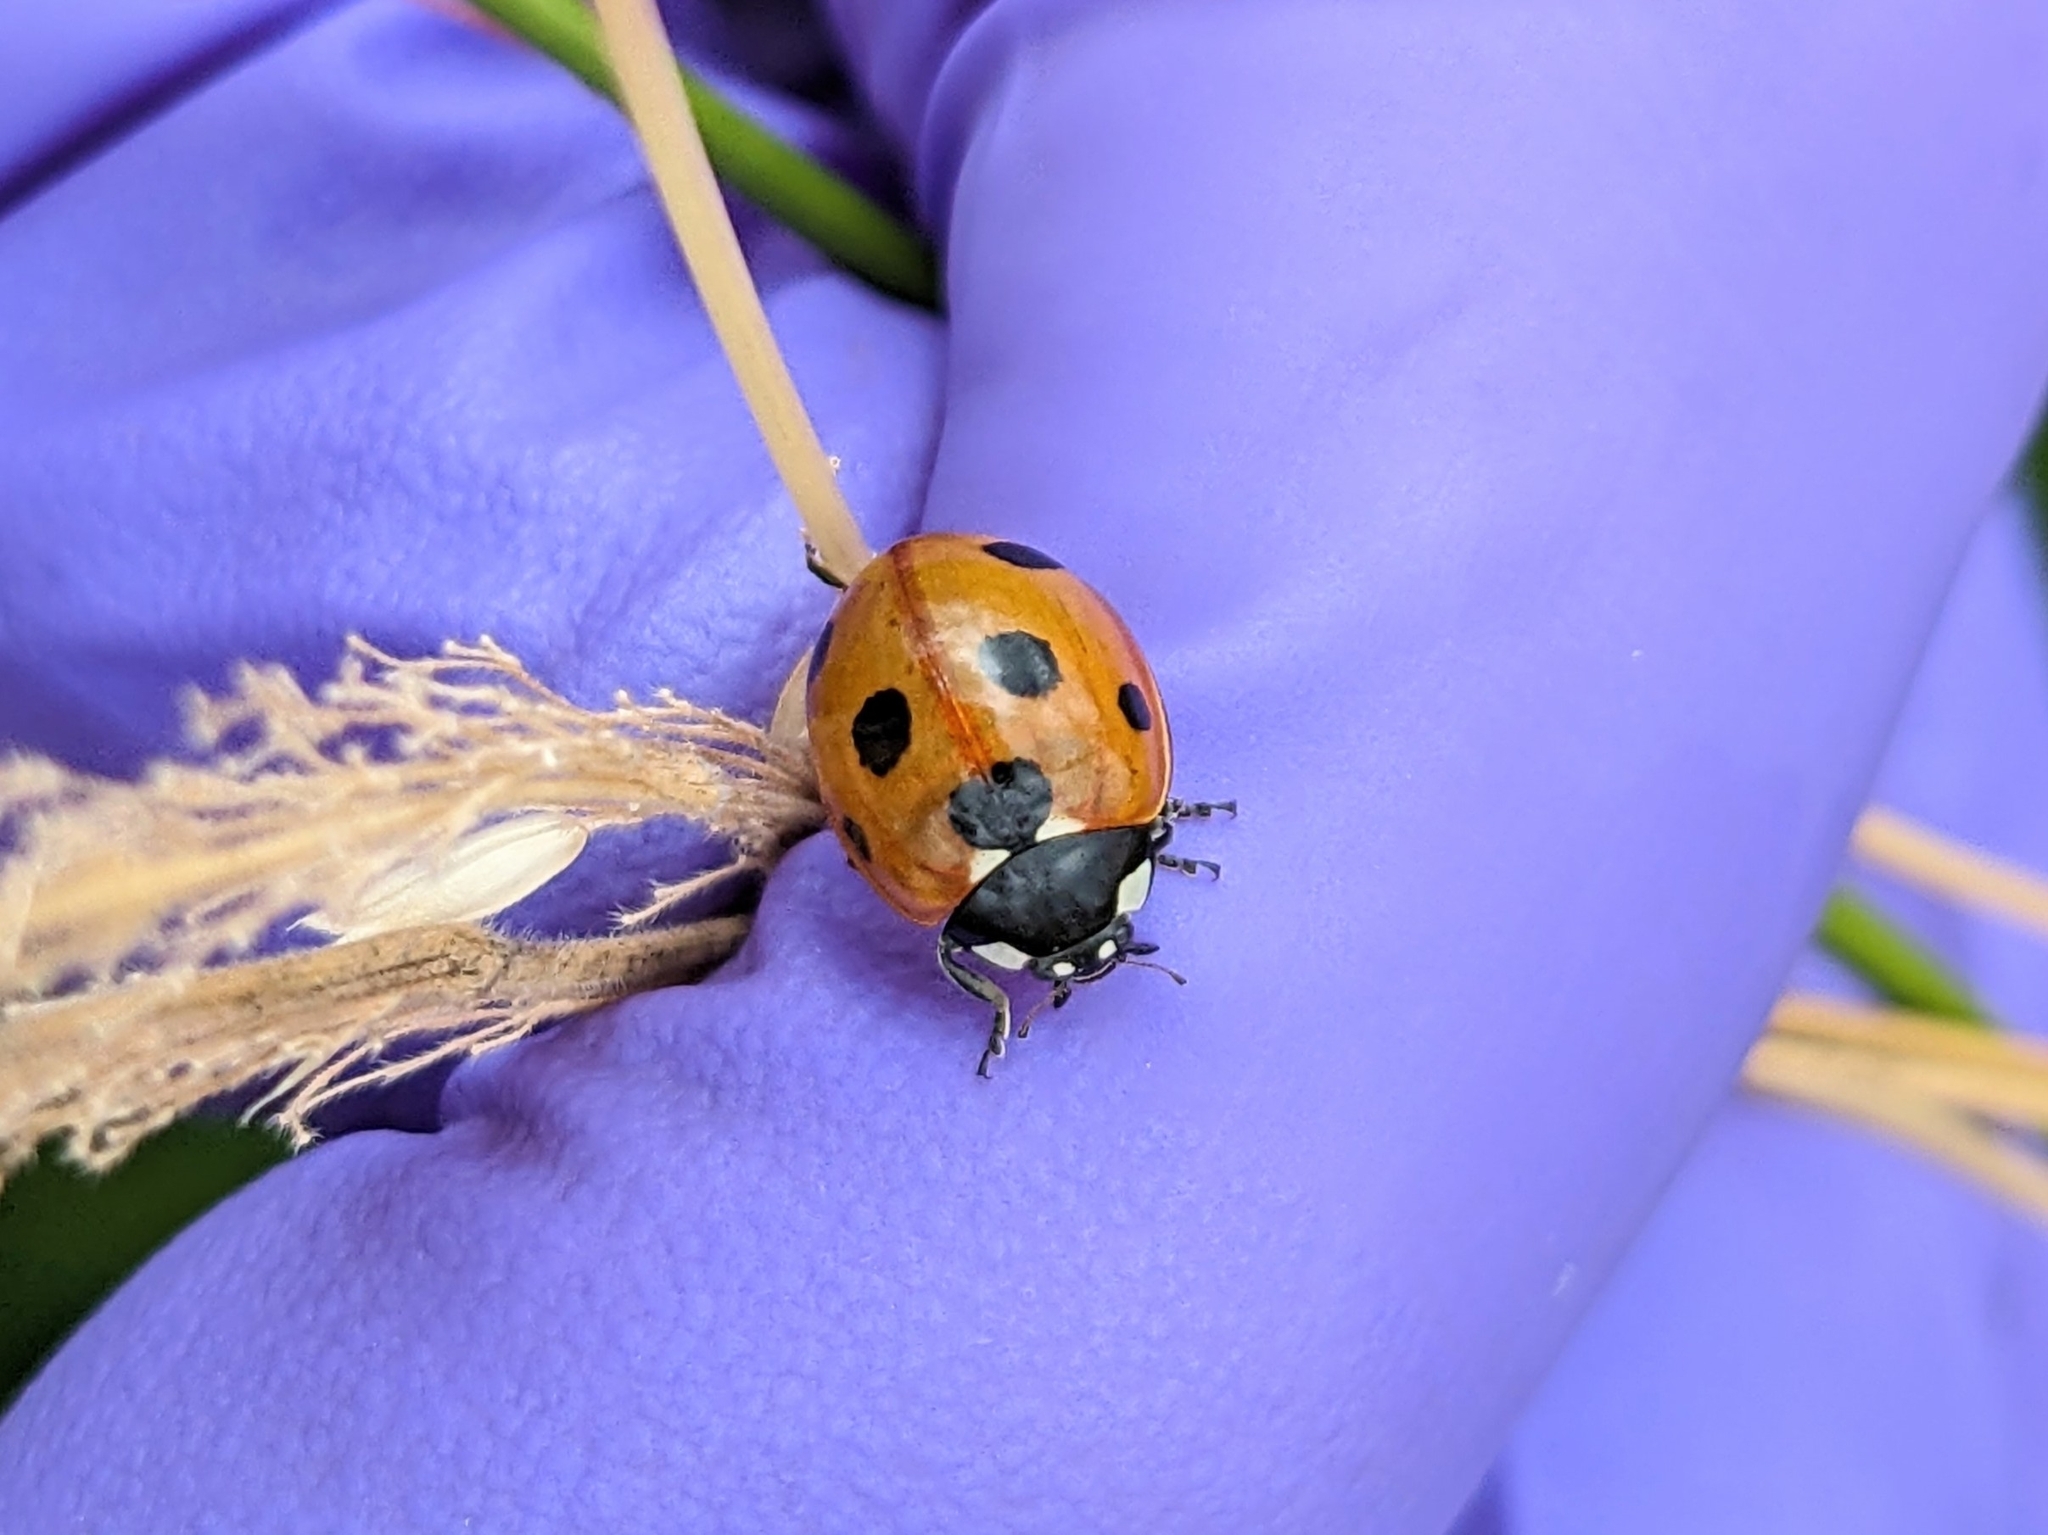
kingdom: Animalia
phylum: Arthropoda
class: Insecta
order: Coleoptera
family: Coccinellidae
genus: Coccinella
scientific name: Coccinella septempunctata
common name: Sevenspotted lady beetle
